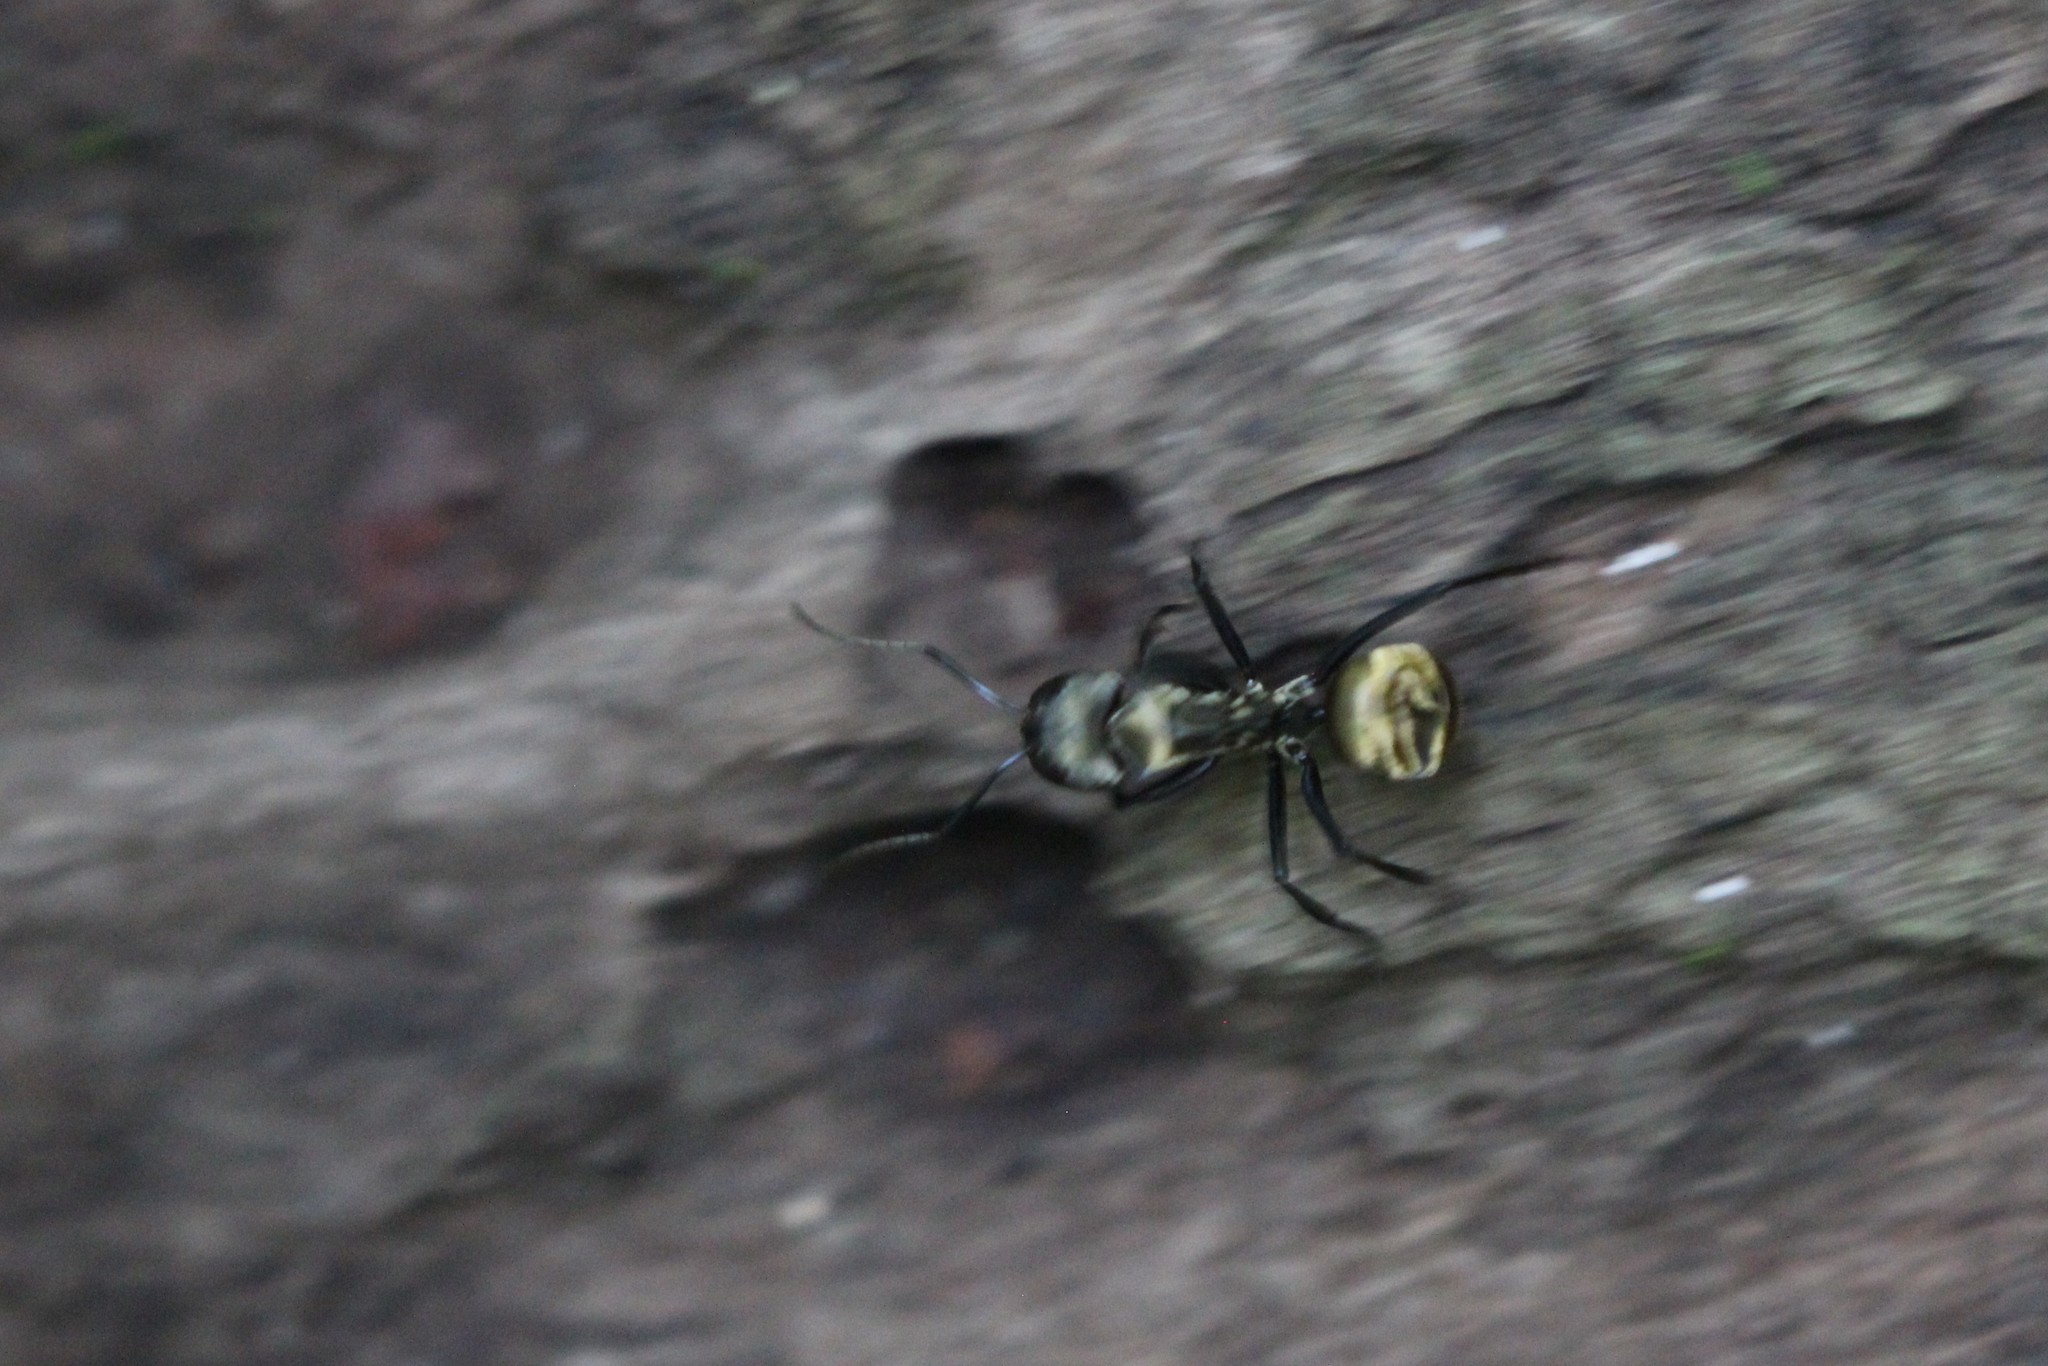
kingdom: Animalia
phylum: Arthropoda
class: Insecta
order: Hymenoptera
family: Formicidae
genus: Camponotus
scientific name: Camponotus sericeiventris
